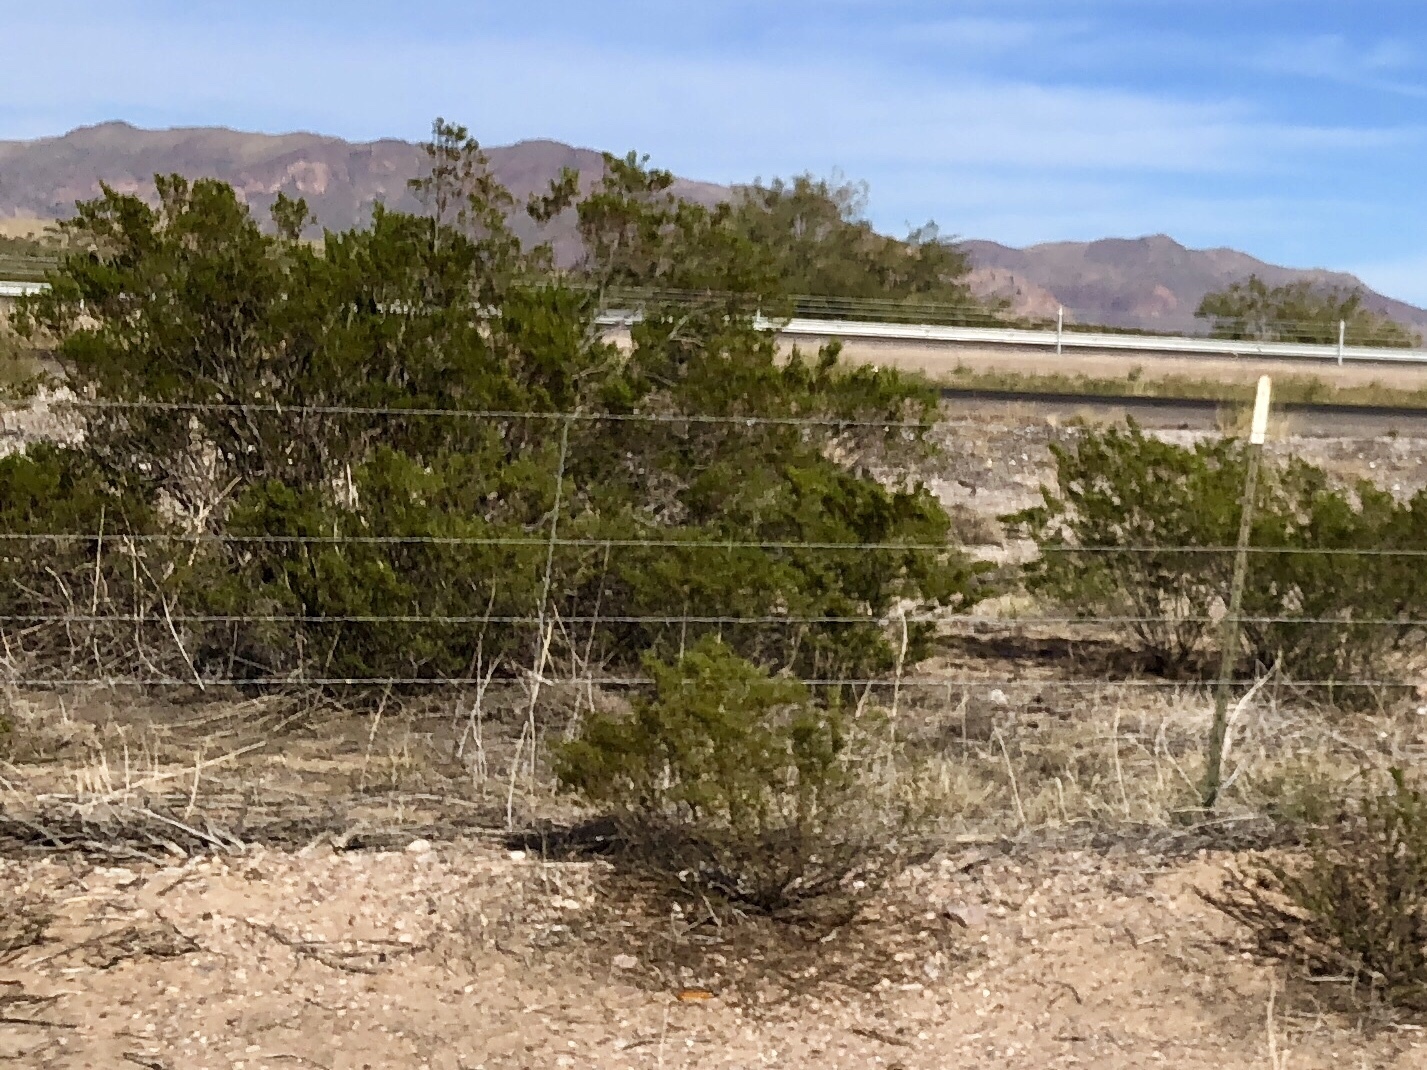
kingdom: Plantae
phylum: Tracheophyta
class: Magnoliopsida
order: Zygophyllales
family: Zygophyllaceae
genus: Larrea
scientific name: Larrea tridentata
